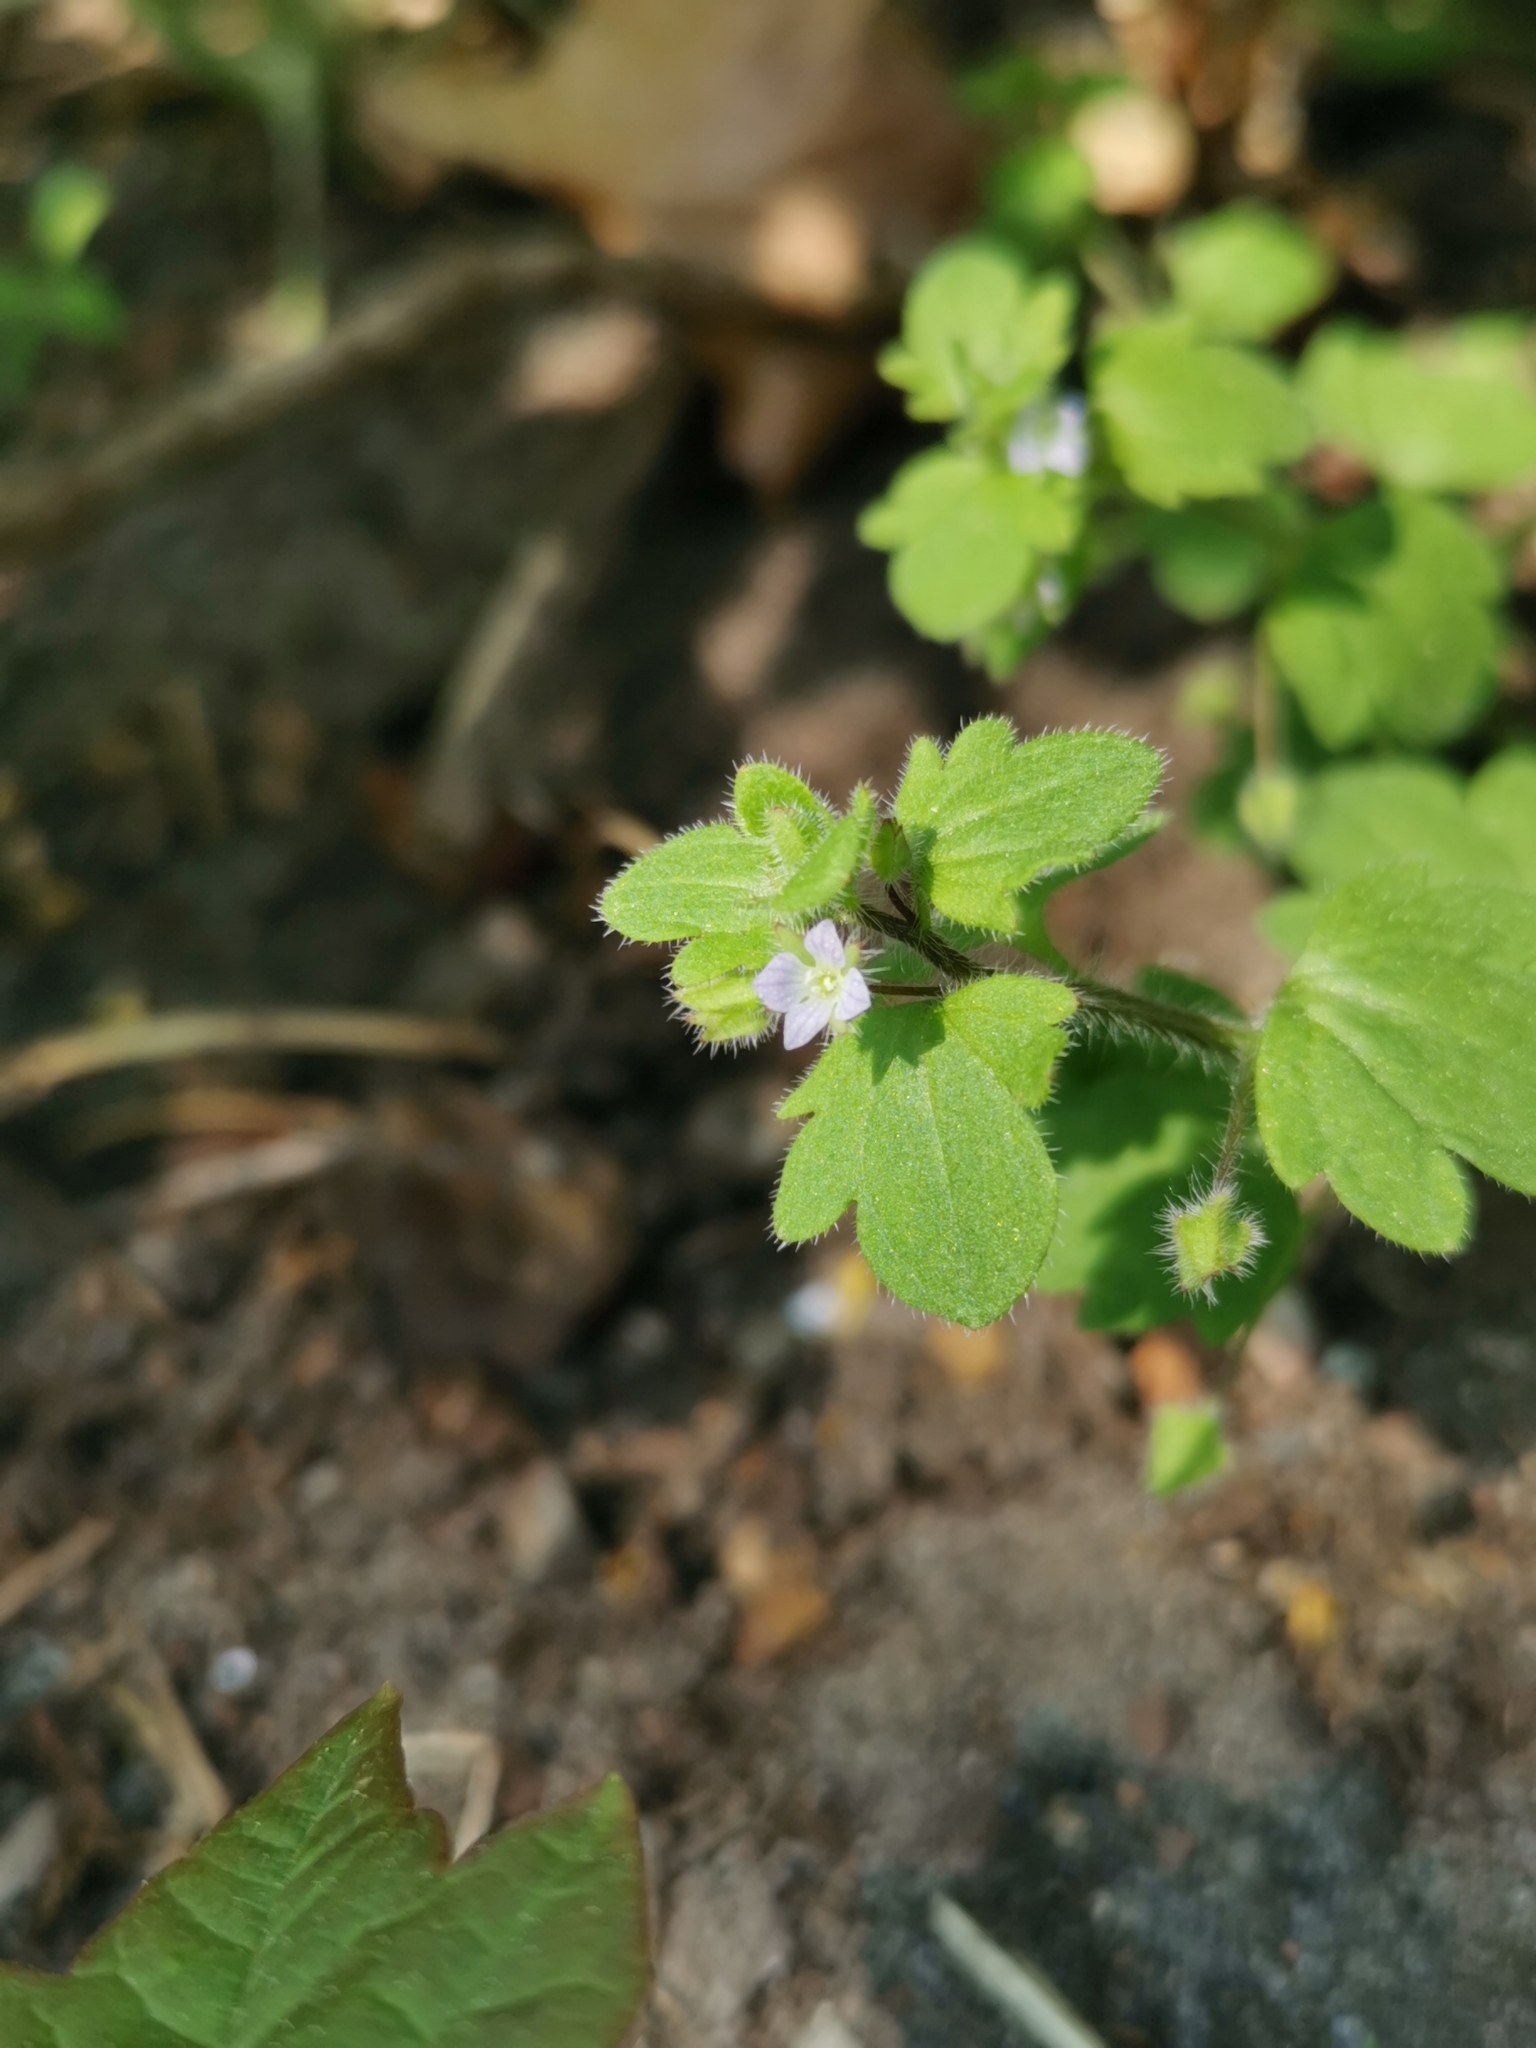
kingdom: Plantae
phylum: Tracheophyta
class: Magnoliopsida
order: Lamiales
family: Plantaginaceae
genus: Veronica
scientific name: Veronica sublobata
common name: False ivy-leaved speedwell
